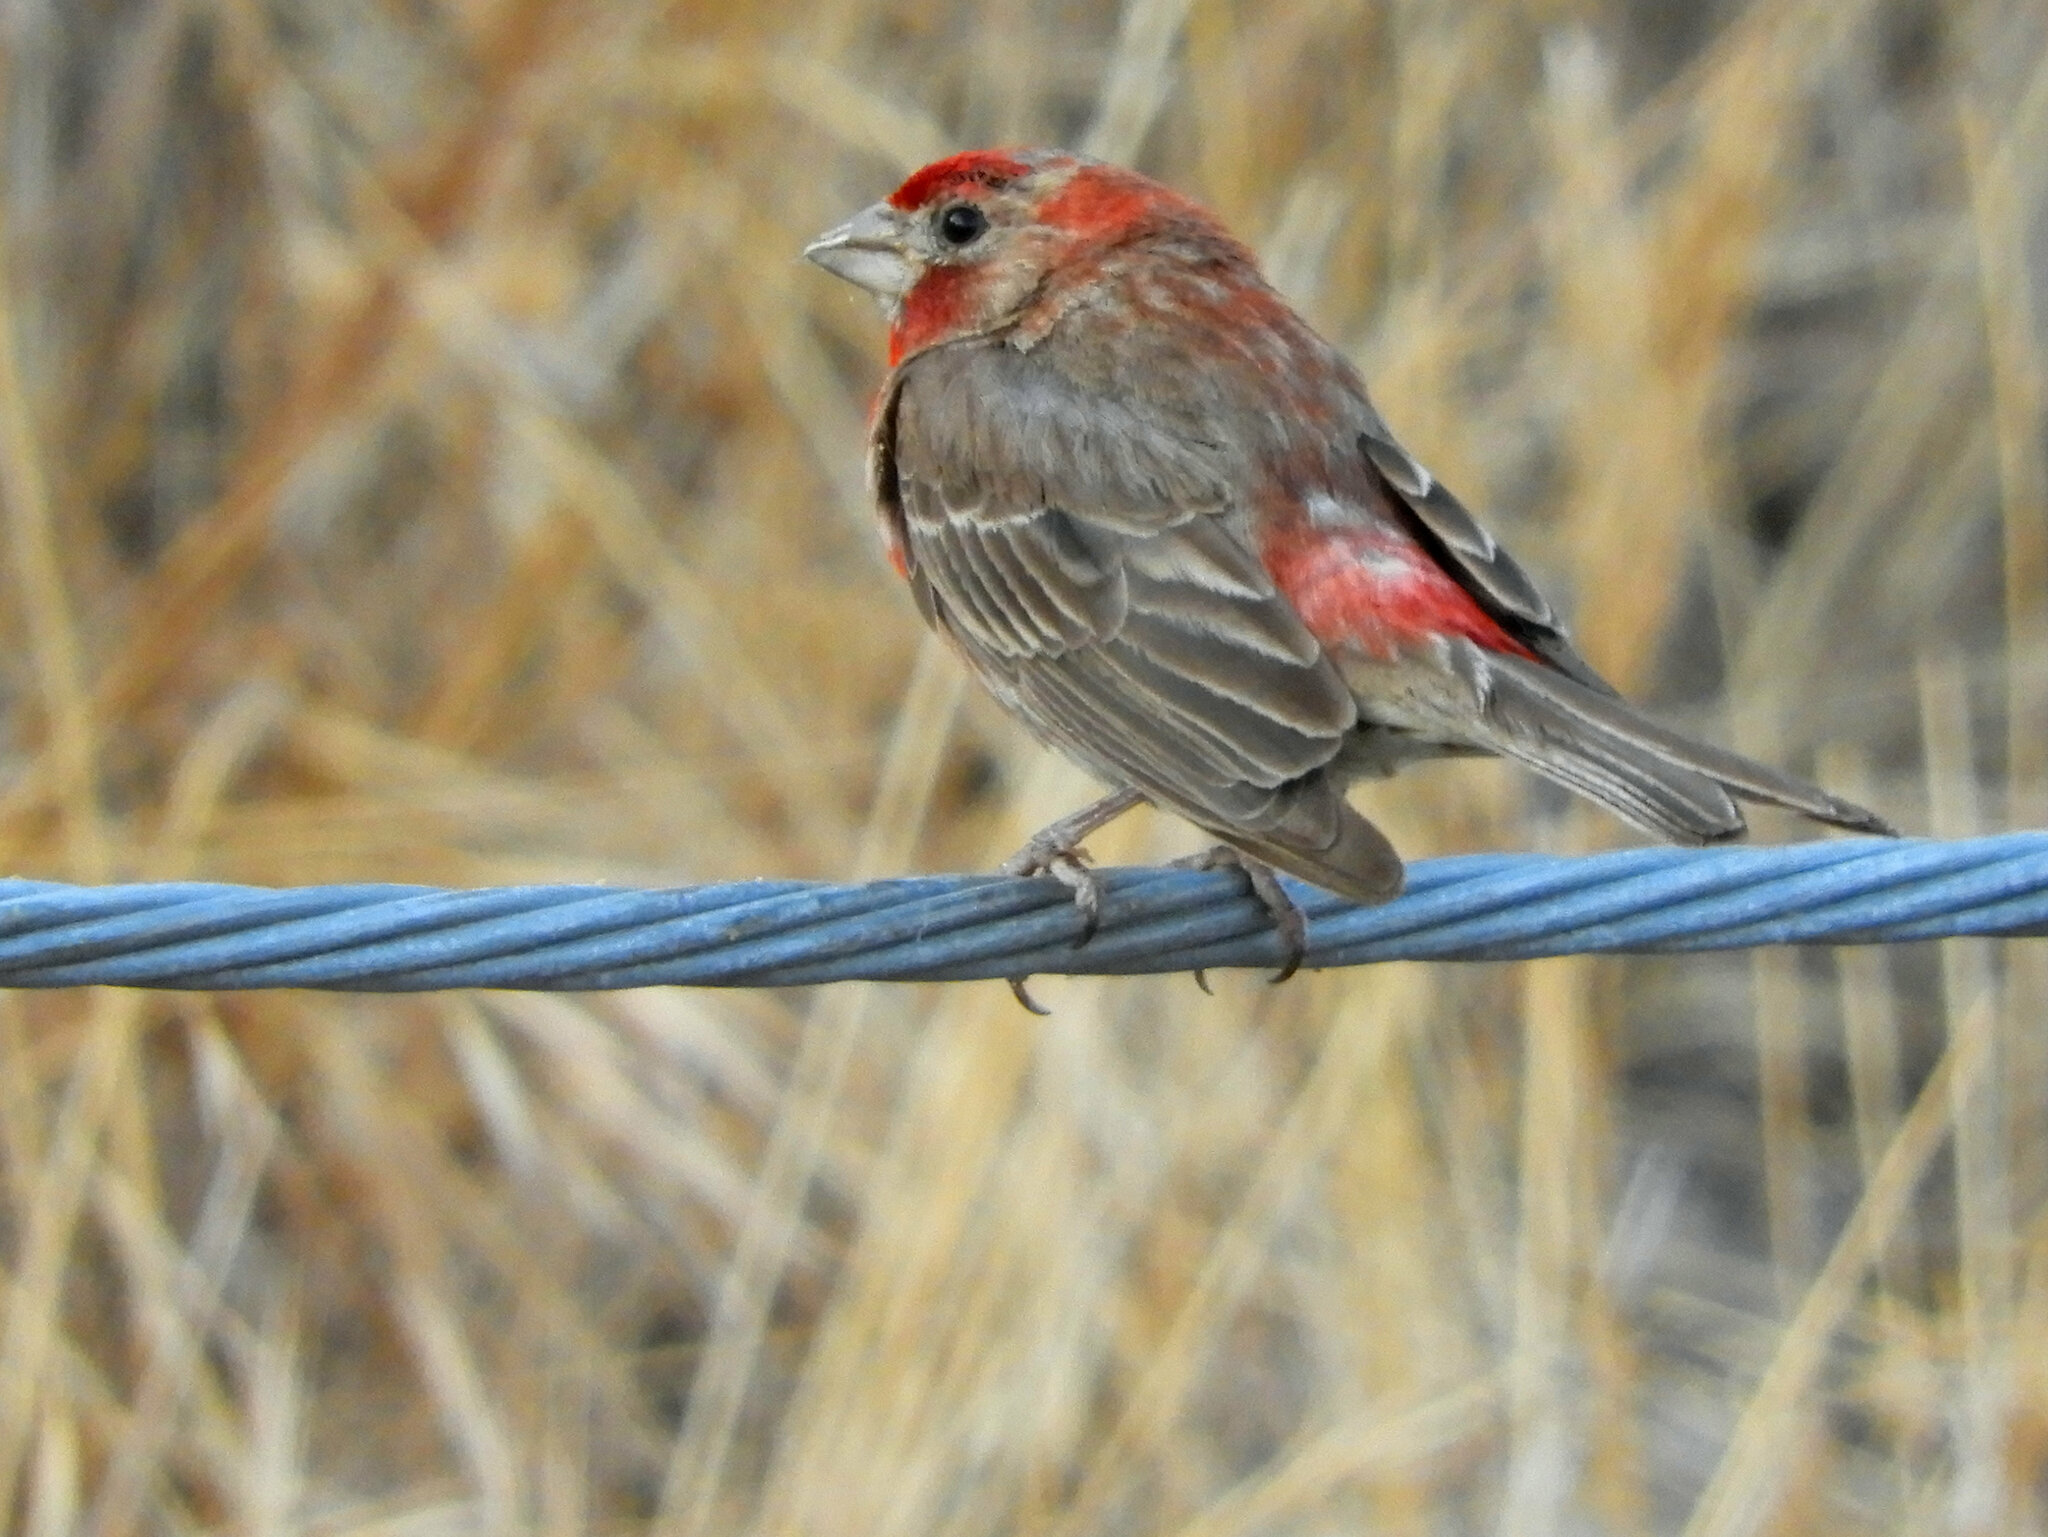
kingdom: Animalia
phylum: Chordata
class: Aves
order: Passeriformes
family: Fringillidae
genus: Haemorhous
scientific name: Haemorhous mexicanus
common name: House finch
